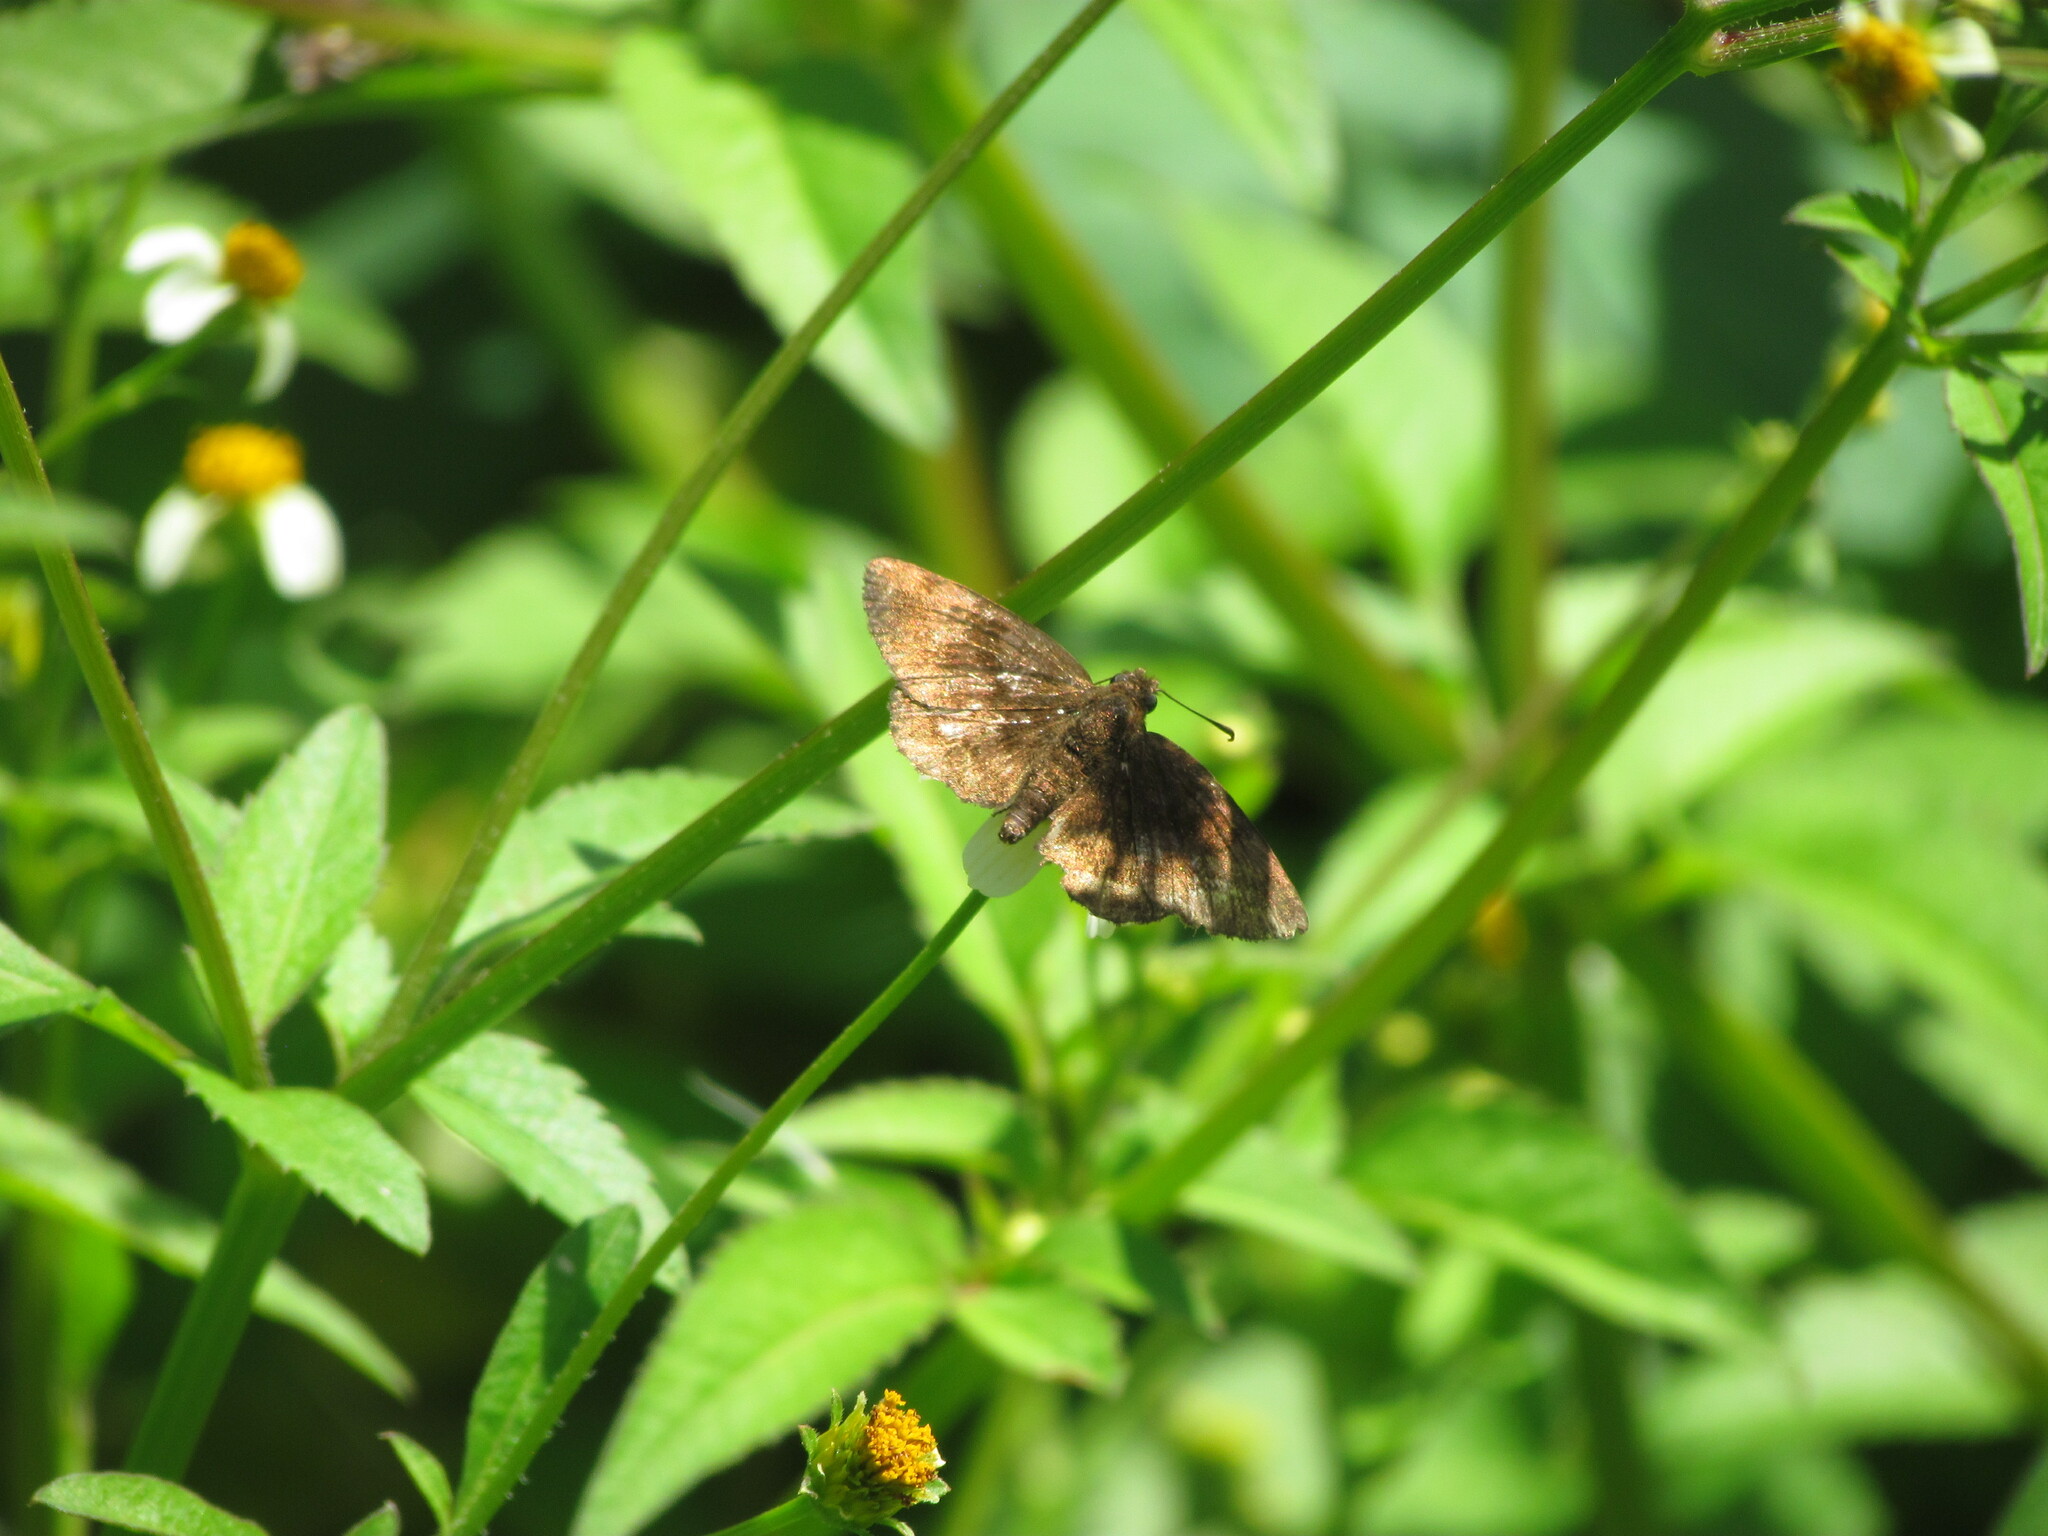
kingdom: Animalia
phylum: Arthropoda
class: Insecta
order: Lepidoptera
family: Hesperiidae
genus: Viola
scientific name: Viola minor
